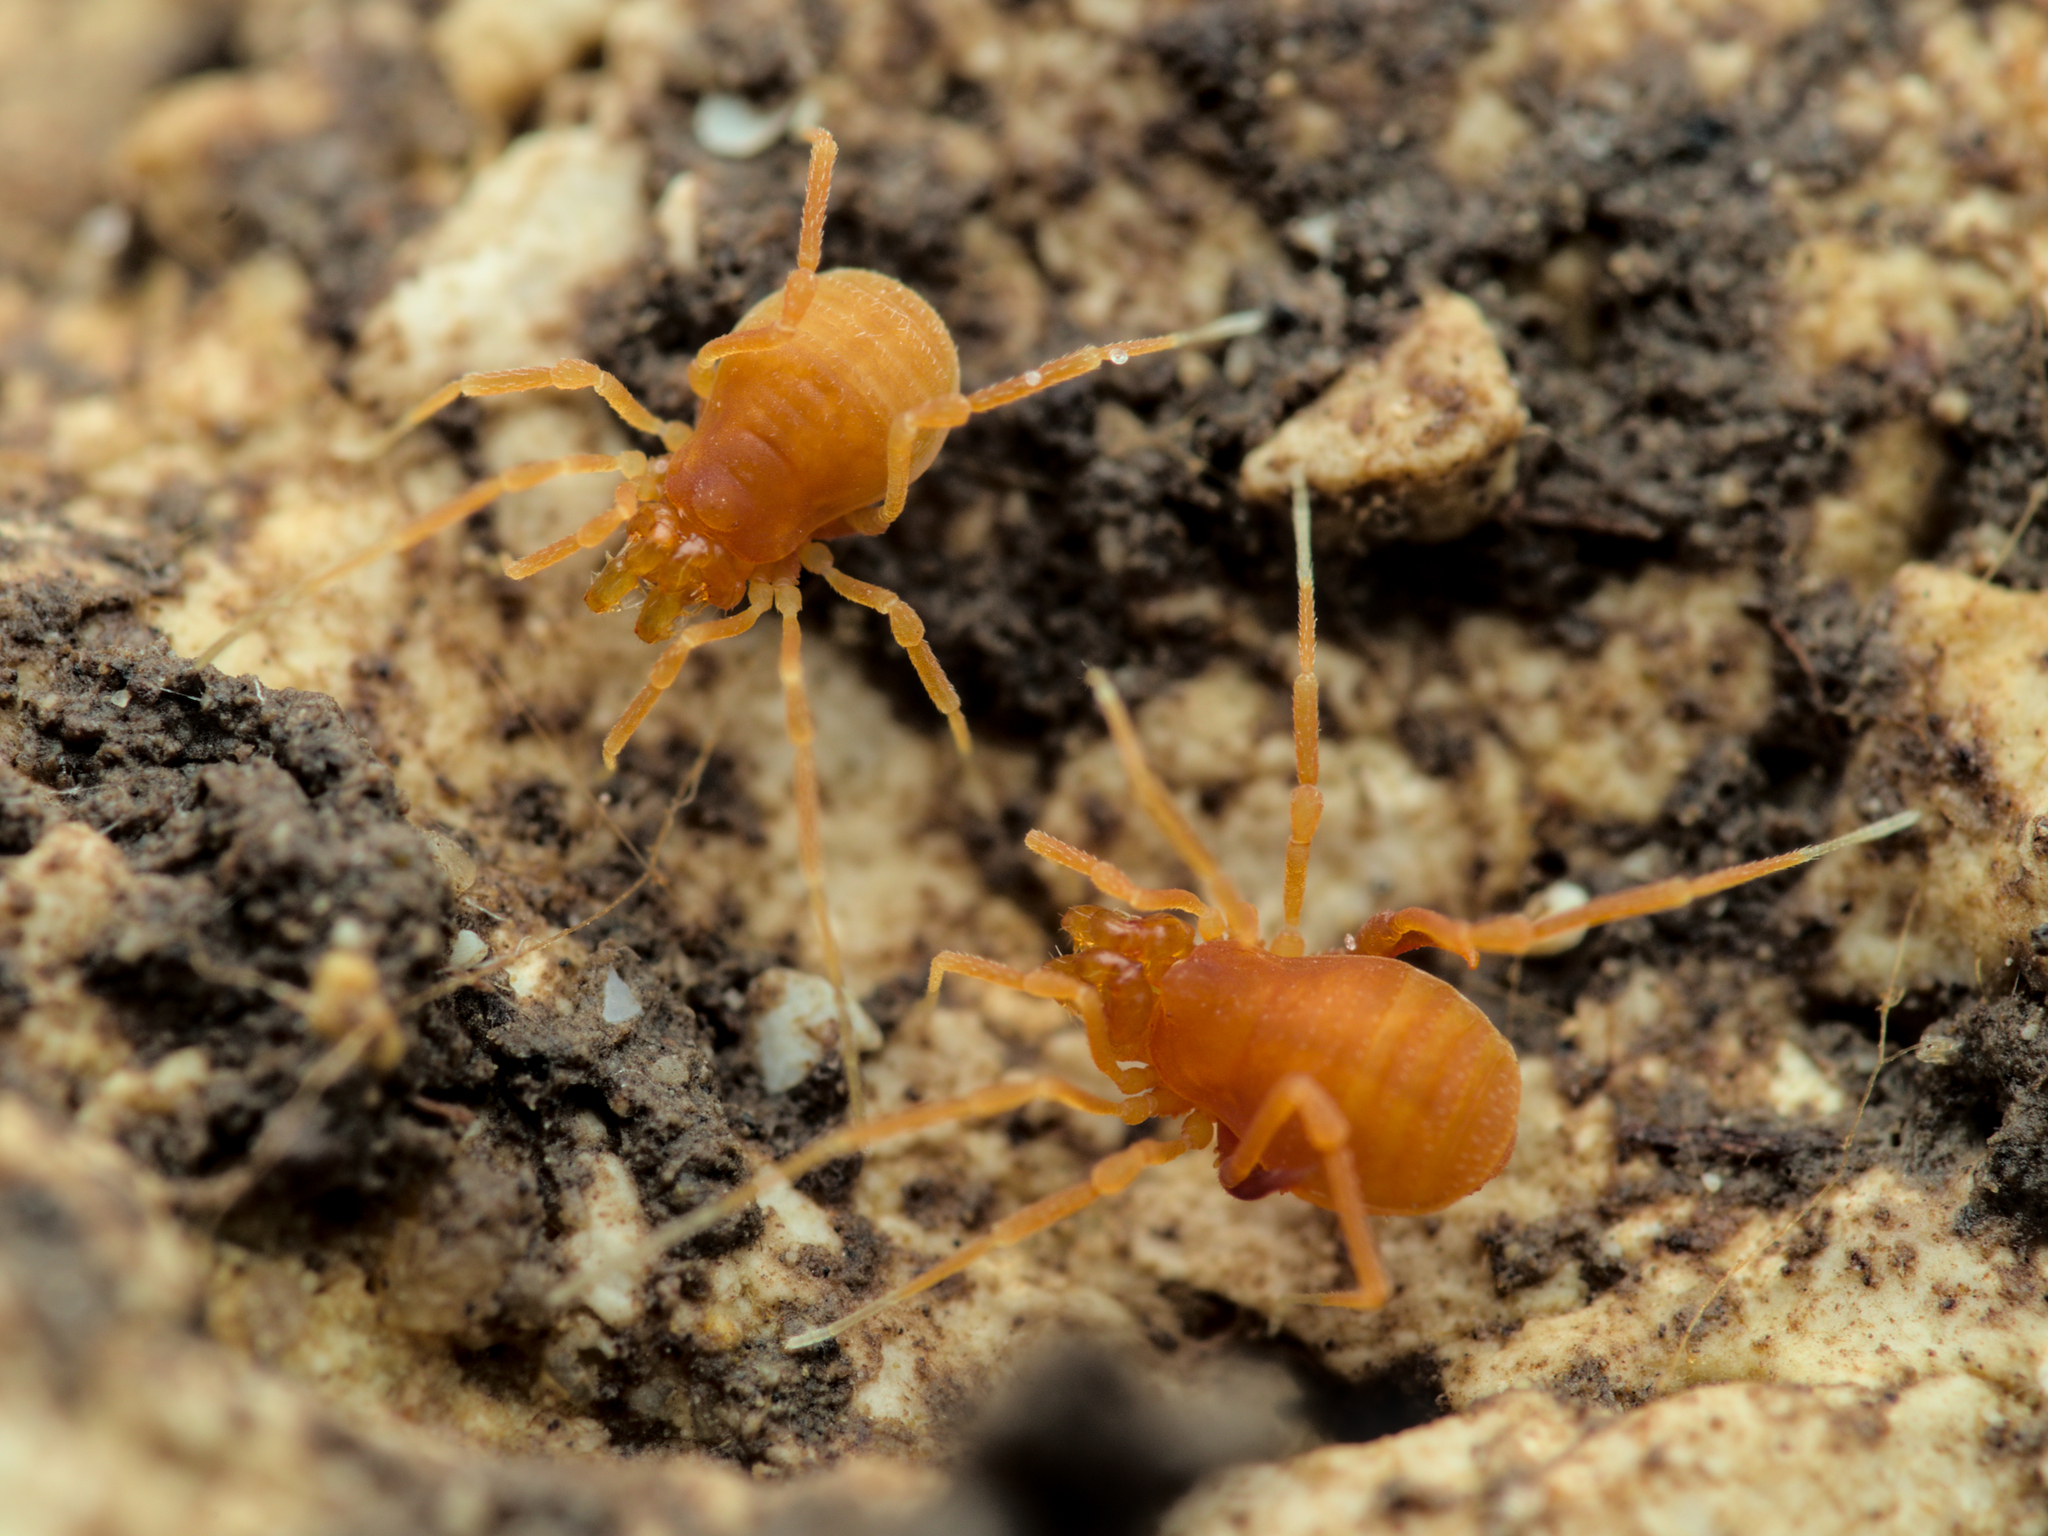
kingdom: Animalia
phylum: Arthropoda
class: Arachnida
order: Opiliones
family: Phalangodidae
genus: Scotolemon
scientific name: Scotolemon doriae
